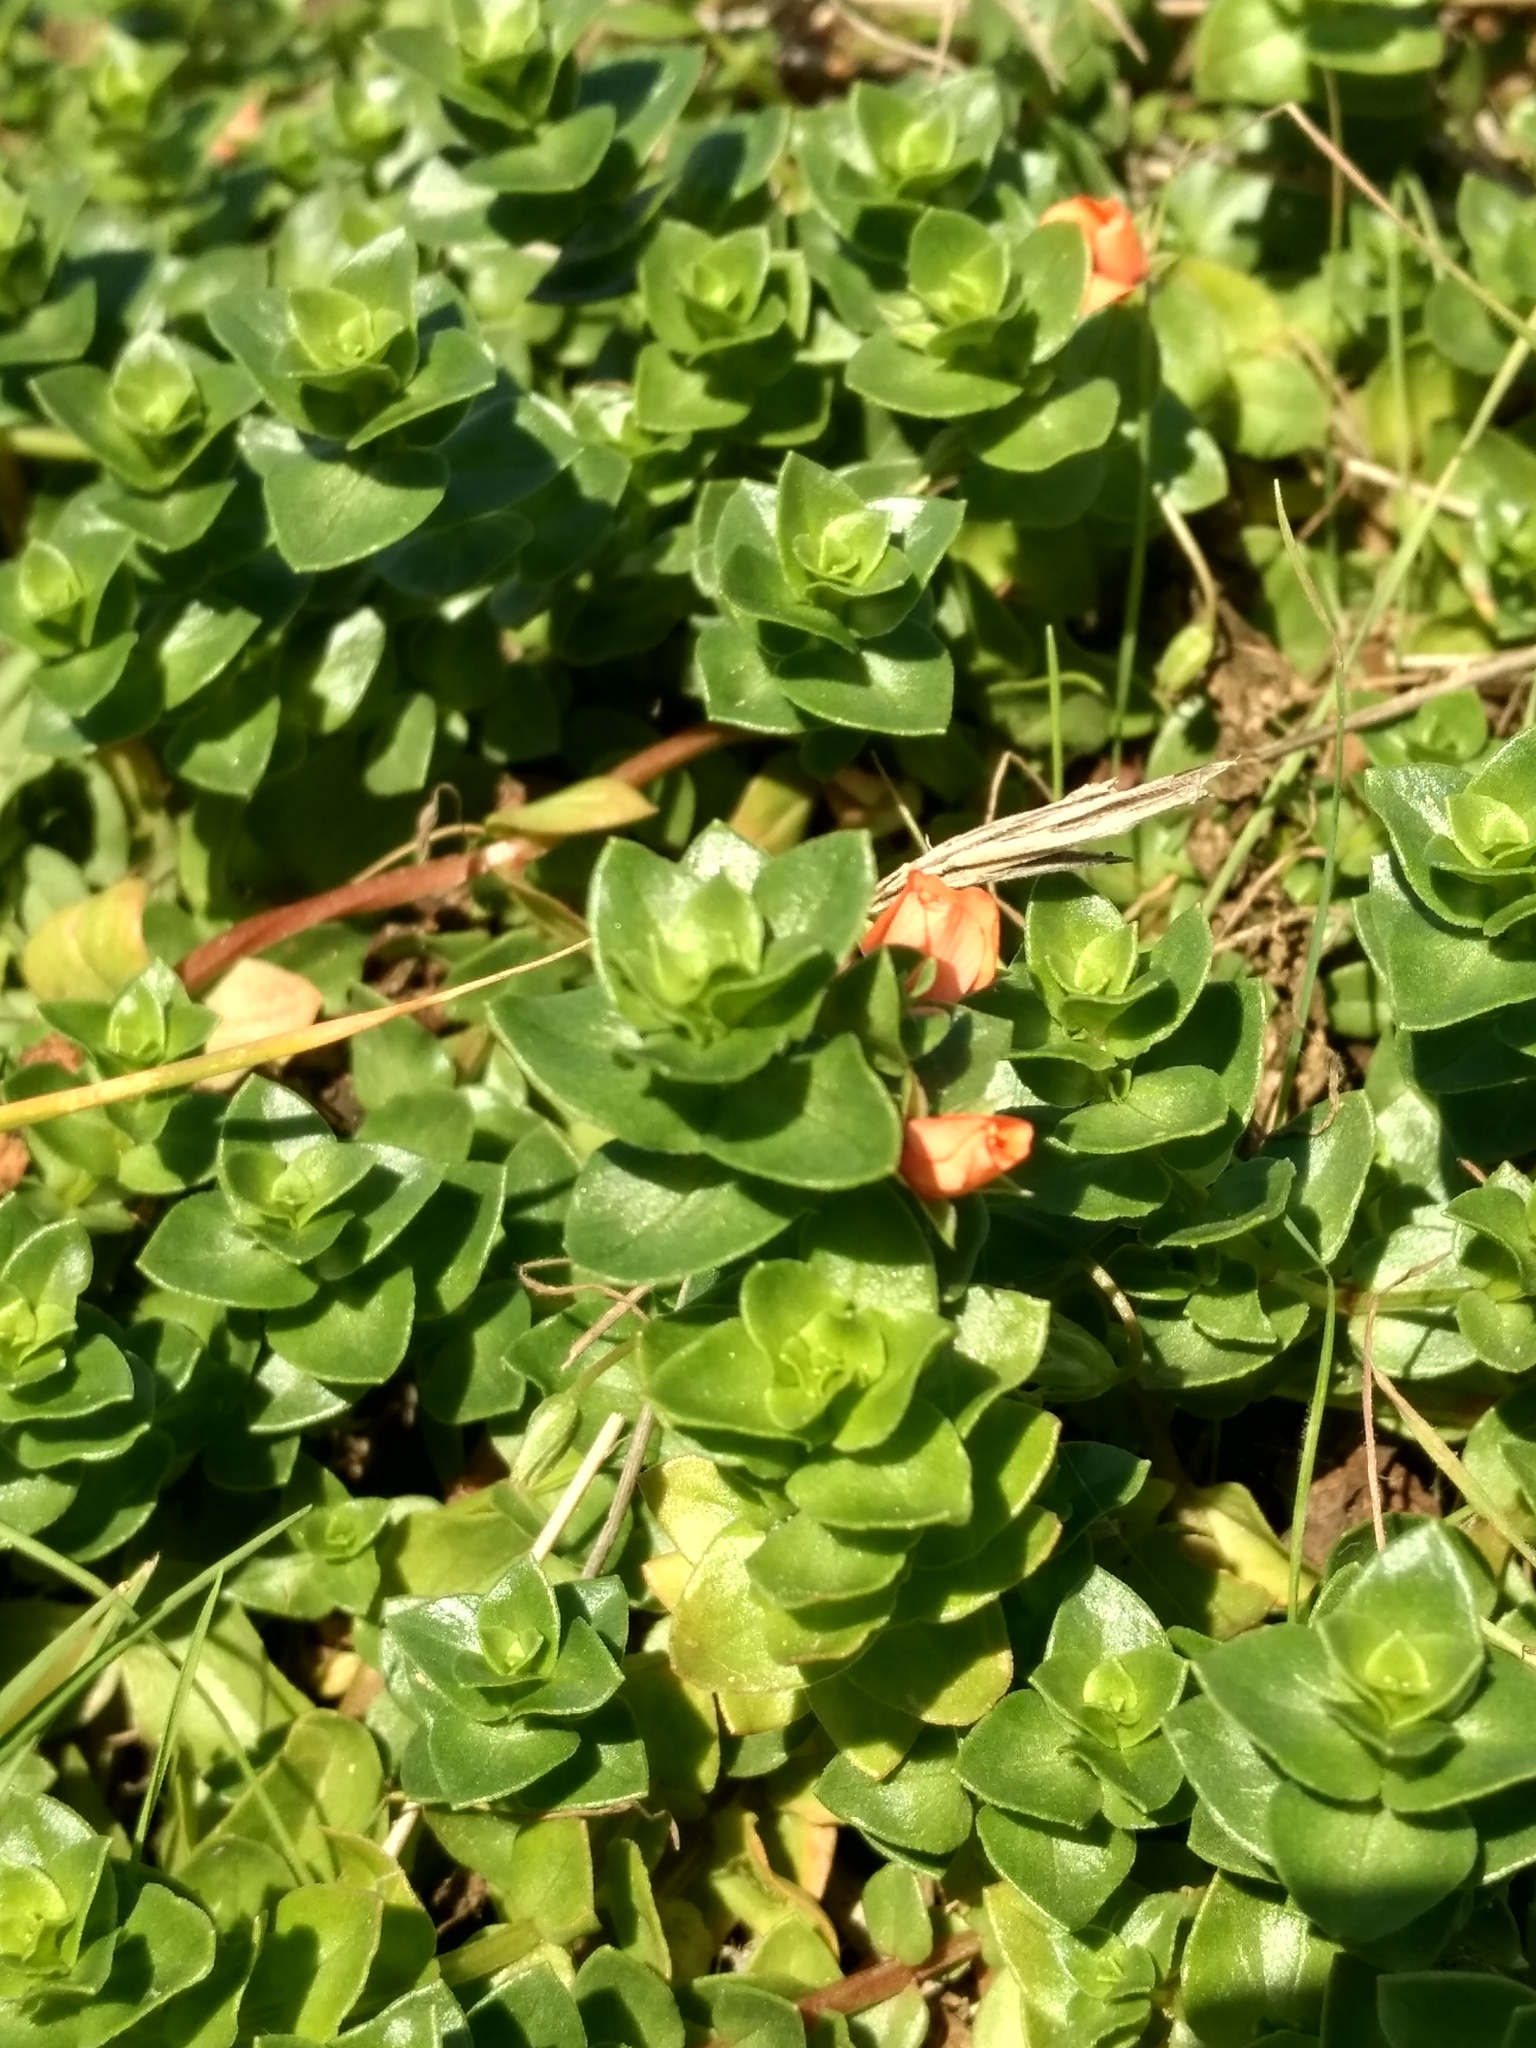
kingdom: Plantae
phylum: Tracheophyta
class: Magnoliopsida
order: Ericales
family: Primulaceae
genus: Lysimachia
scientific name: Lysimachia arvensis
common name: Scarlet pimpernel
